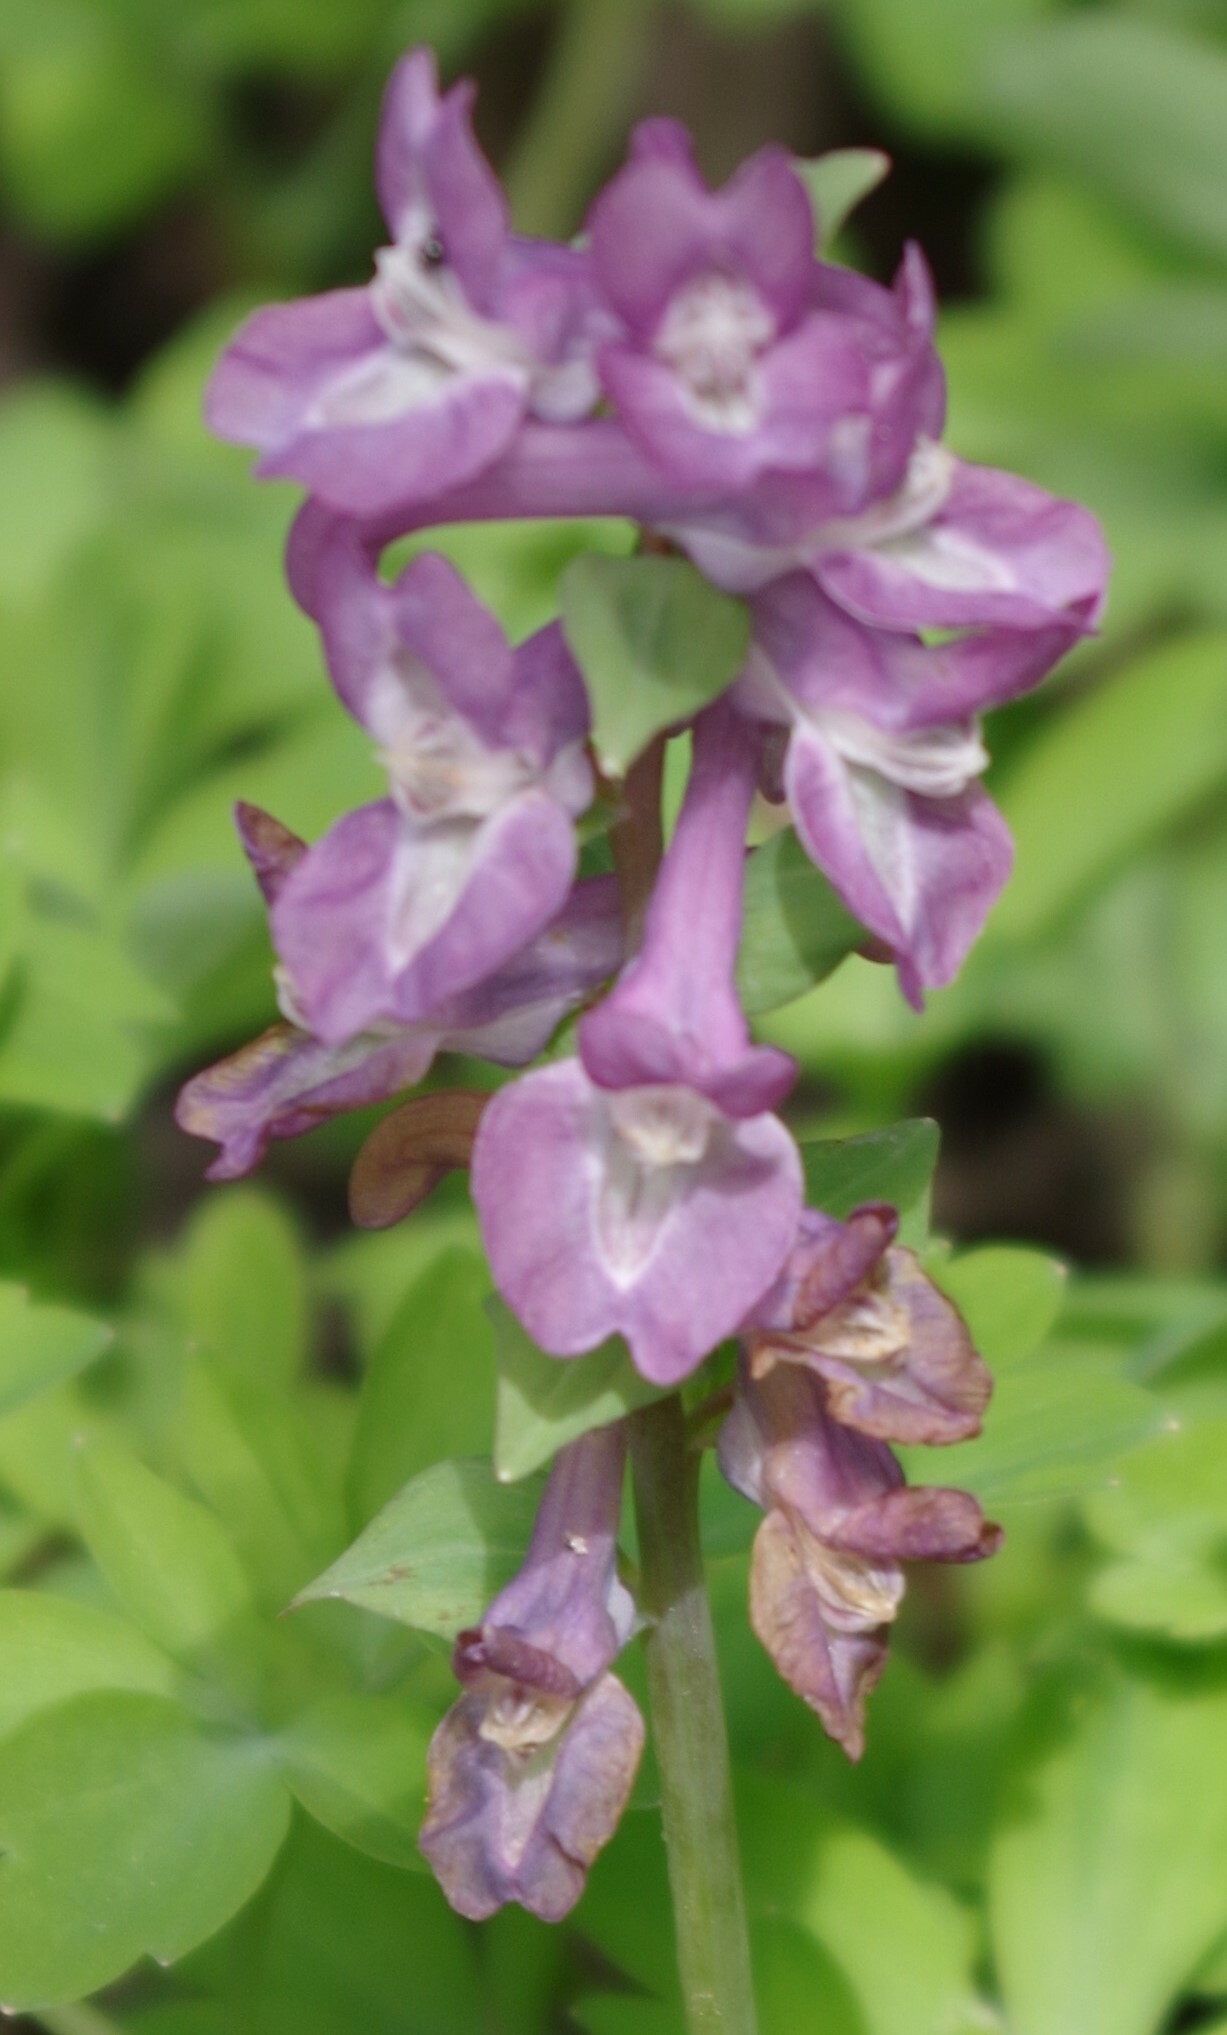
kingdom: Plantae
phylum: Tracheophyta
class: Magnoliopsida
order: Ranunculales
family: Papaveraceae
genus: Corydalis
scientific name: Corydalis cava
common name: Hollowroot
